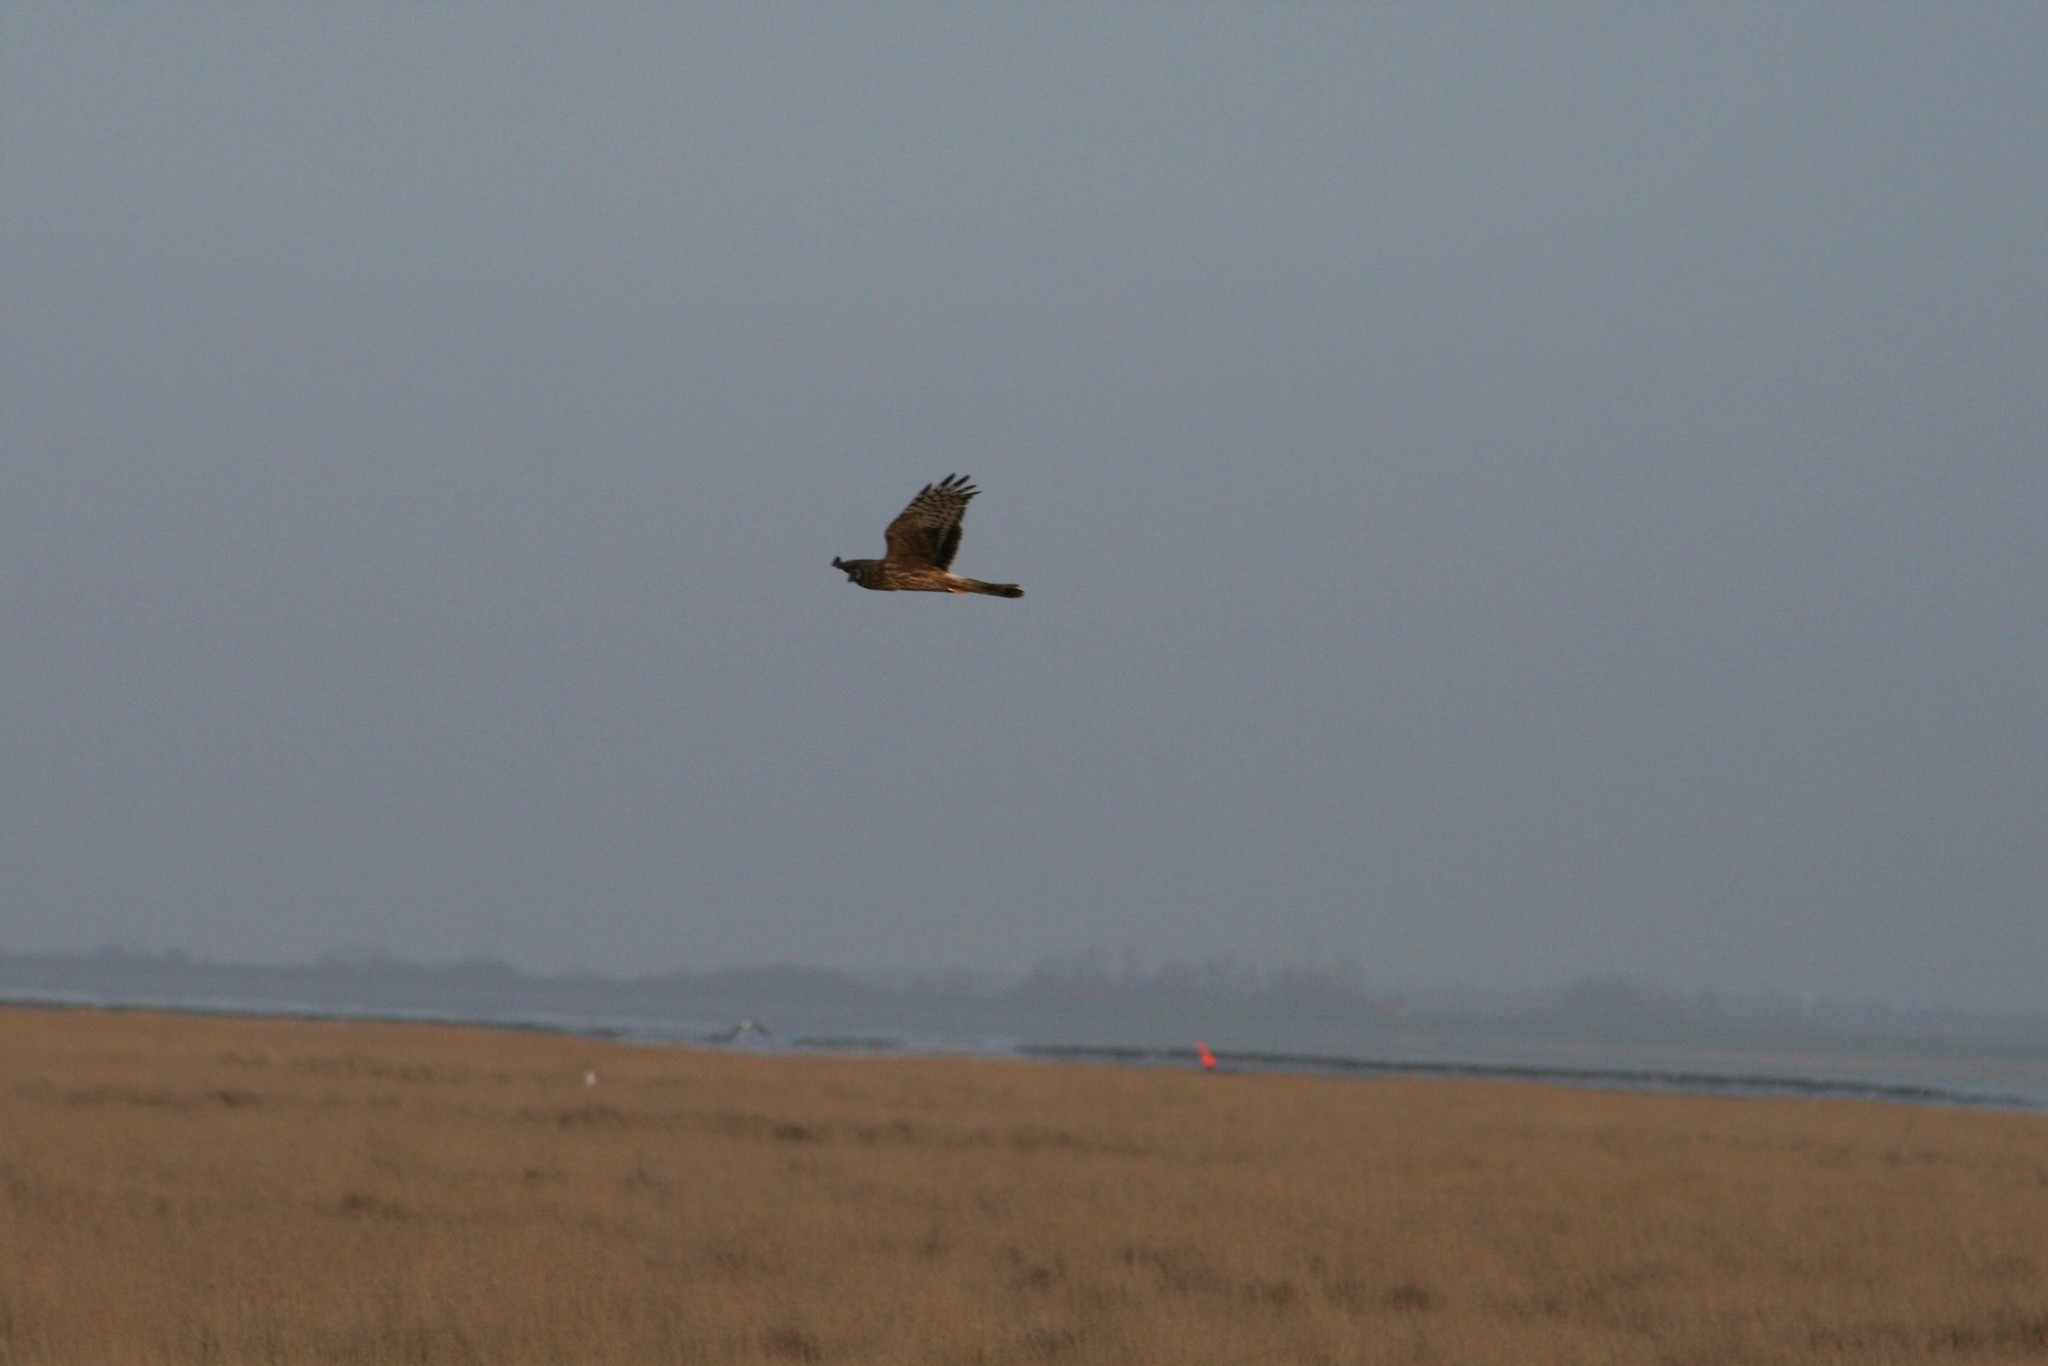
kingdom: Animalia
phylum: Chordata
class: Aves
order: Accipitriformes
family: Accipitridae
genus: Circus
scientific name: Circus cyaneus
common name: Hen harrier
